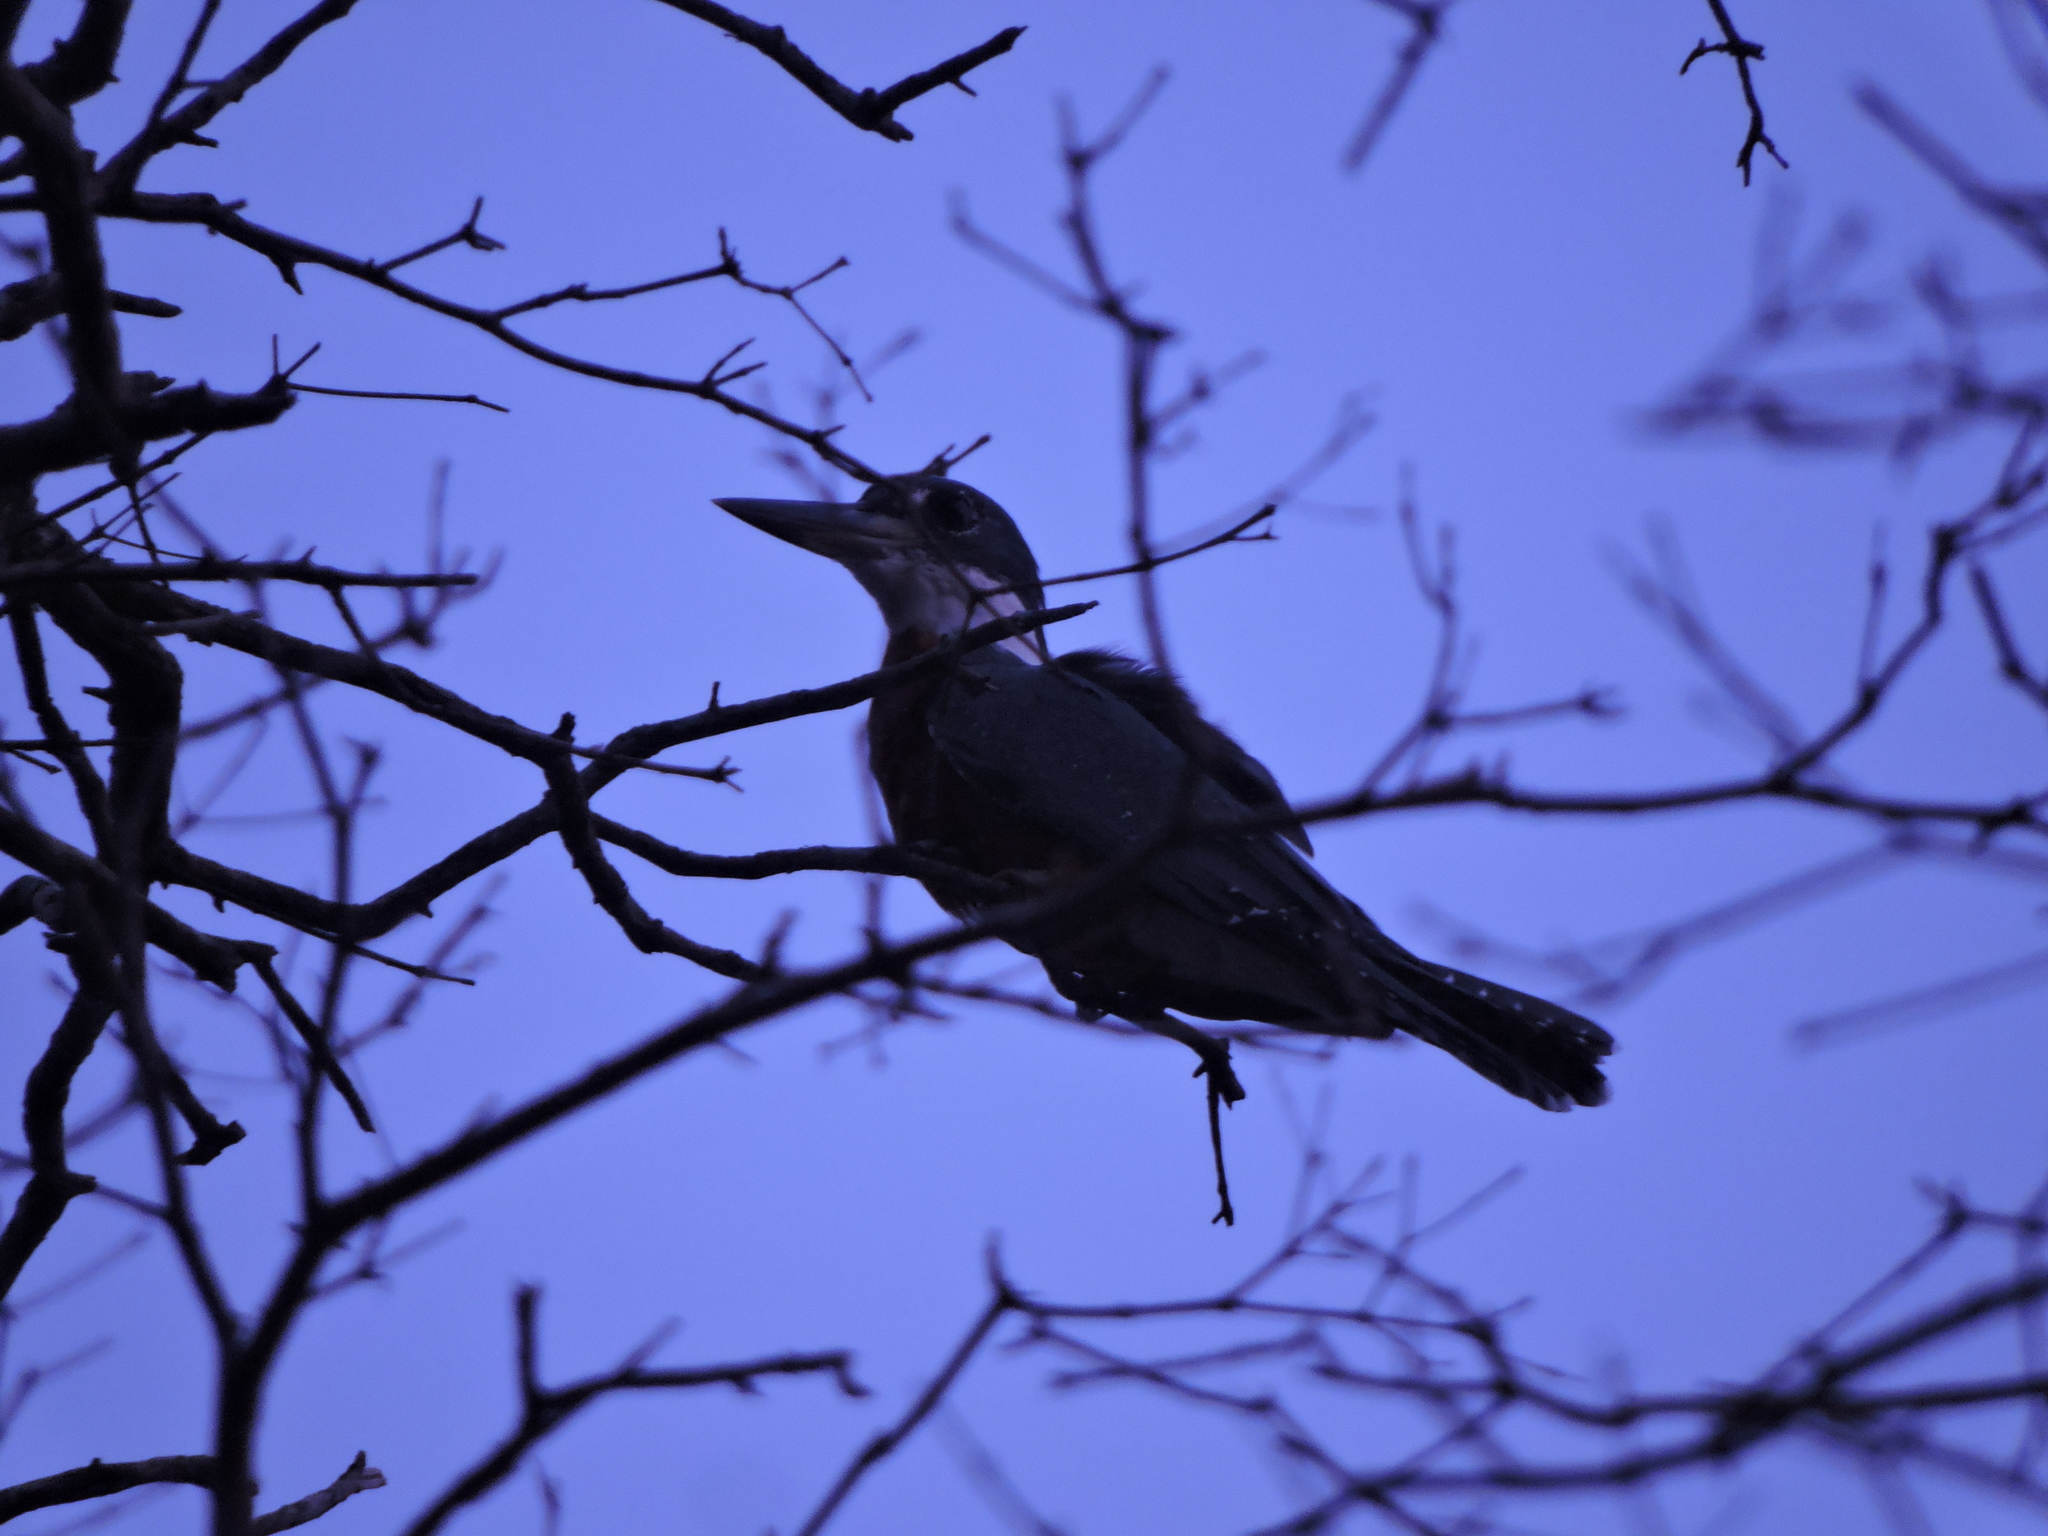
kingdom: Animalia
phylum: Chordata
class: Aves
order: Coraciiformes
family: Alcedinidae
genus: Megaceryle
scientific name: Megaceryle torquata
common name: Ringed kingfisher
